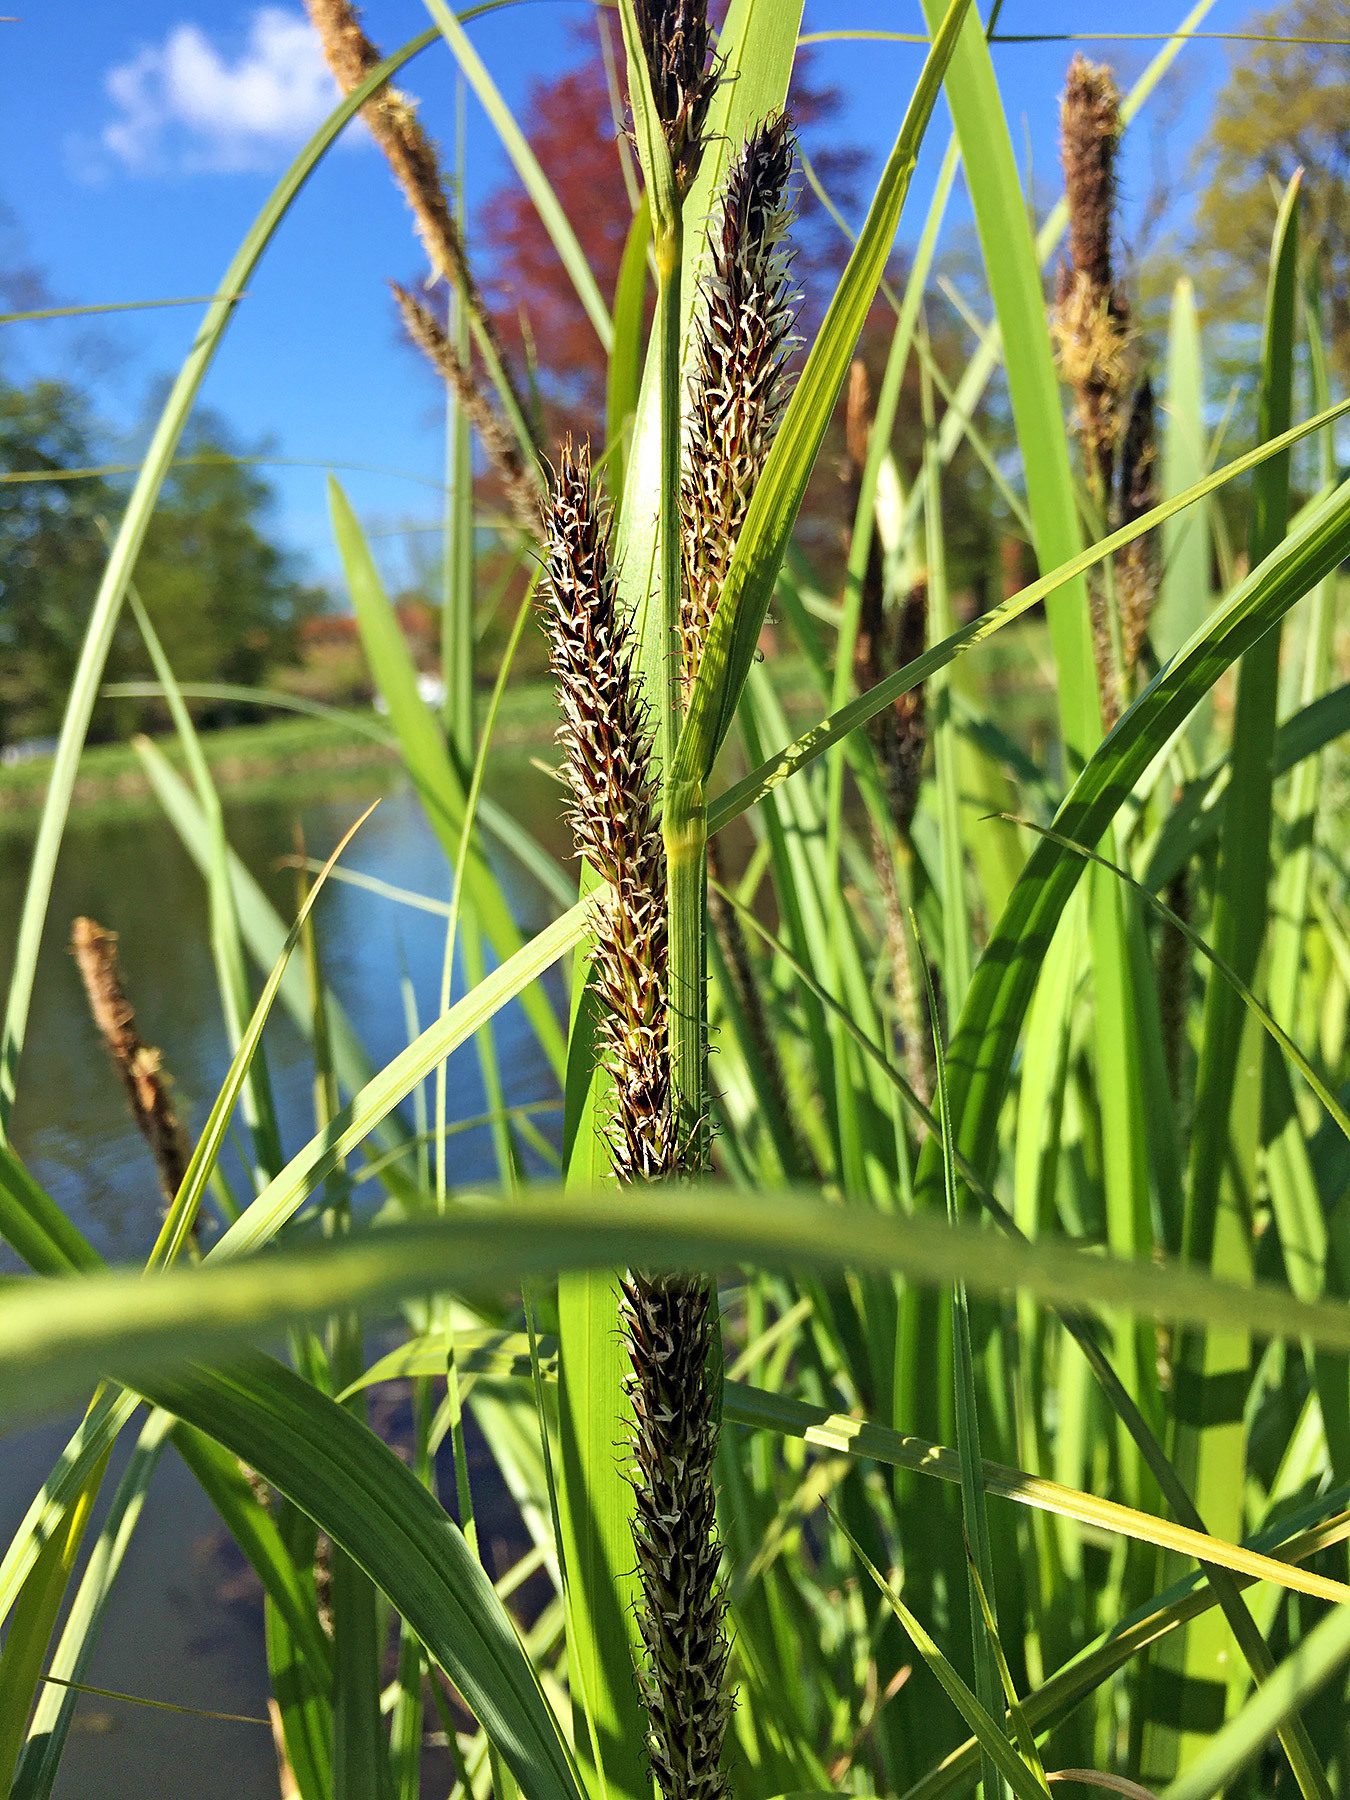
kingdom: Plantae
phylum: Tracheophyta
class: Liliopsida
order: Poales
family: Cyperaceae
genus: Carex
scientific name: Carex riparia
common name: Greater pond-sedge
